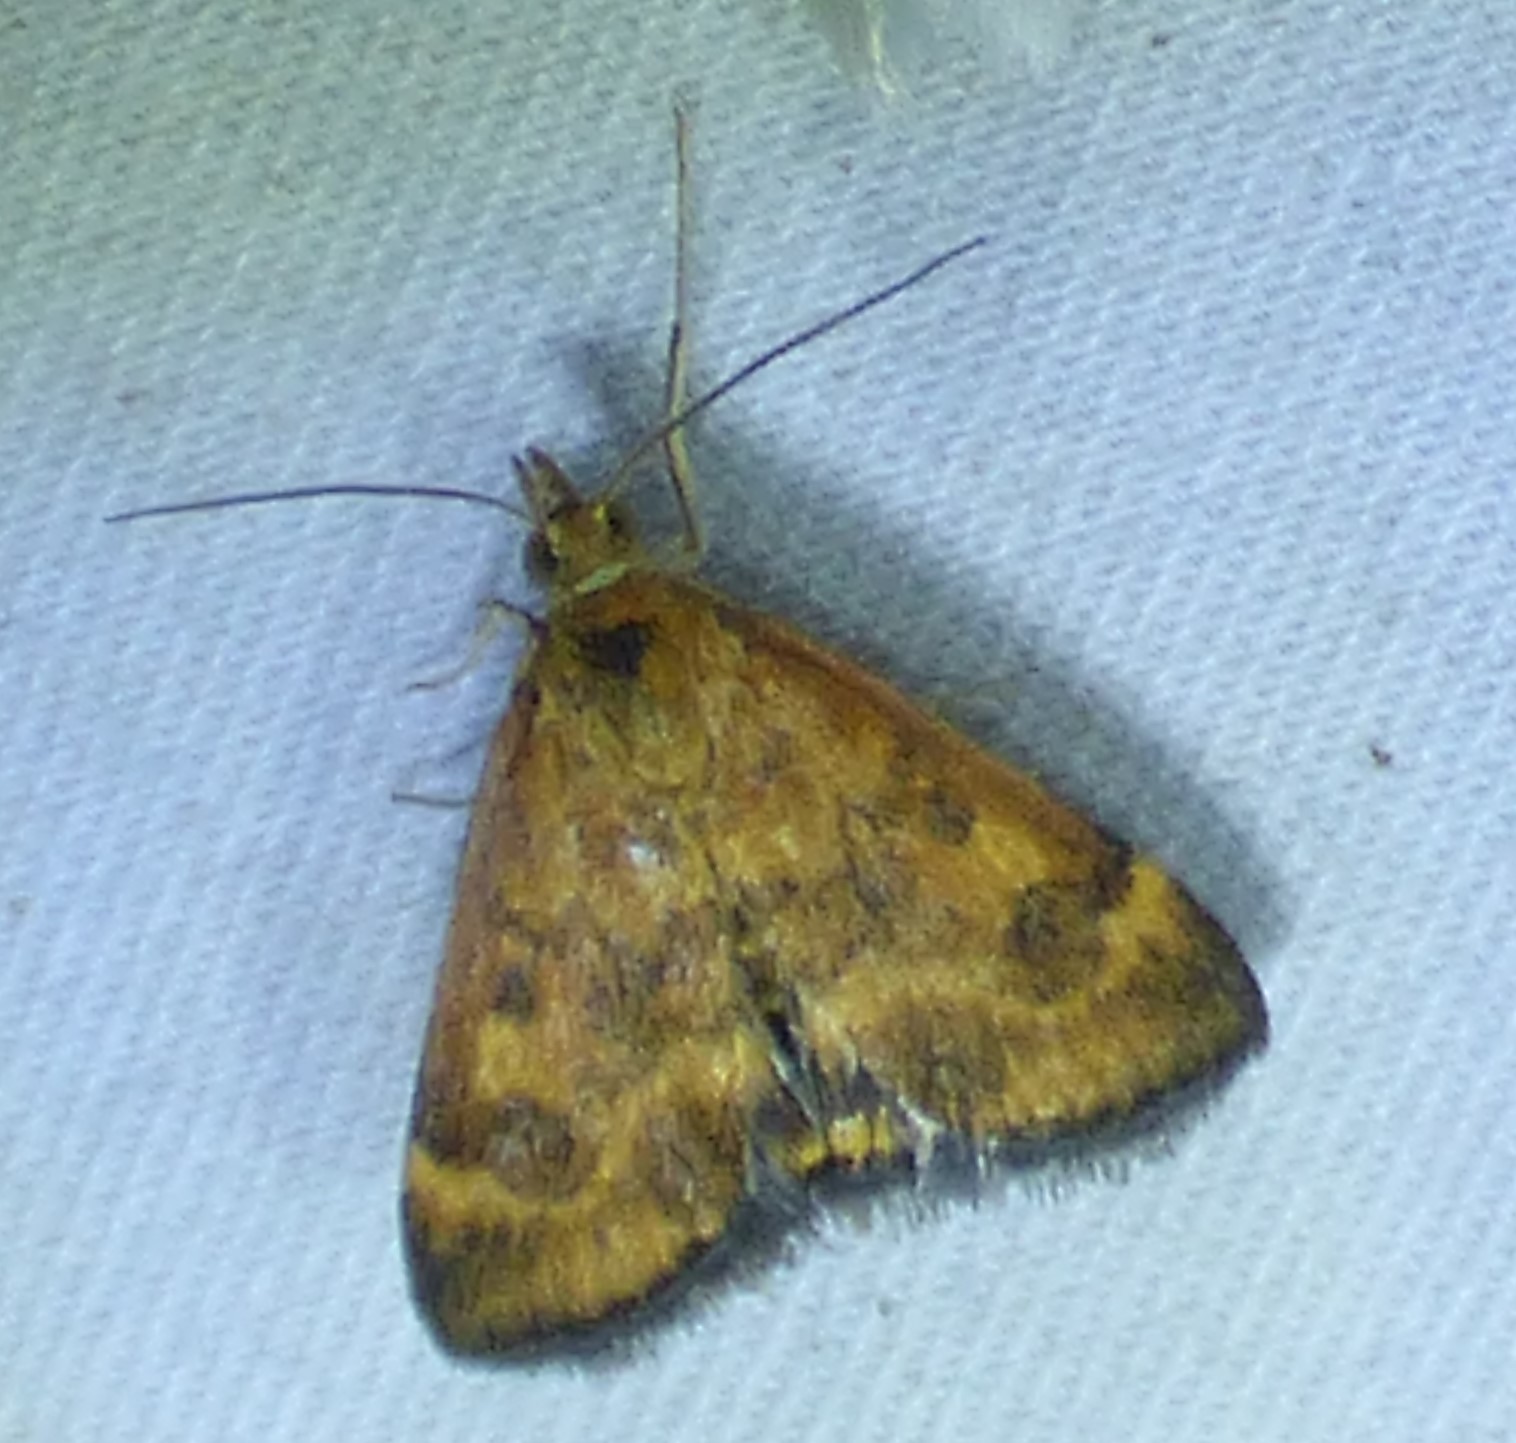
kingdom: Animalia
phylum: Arthropoda
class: Insecta
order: Lepidoptera
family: Crambidae
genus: Pyrausta
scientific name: Pyrausta subsequalis
